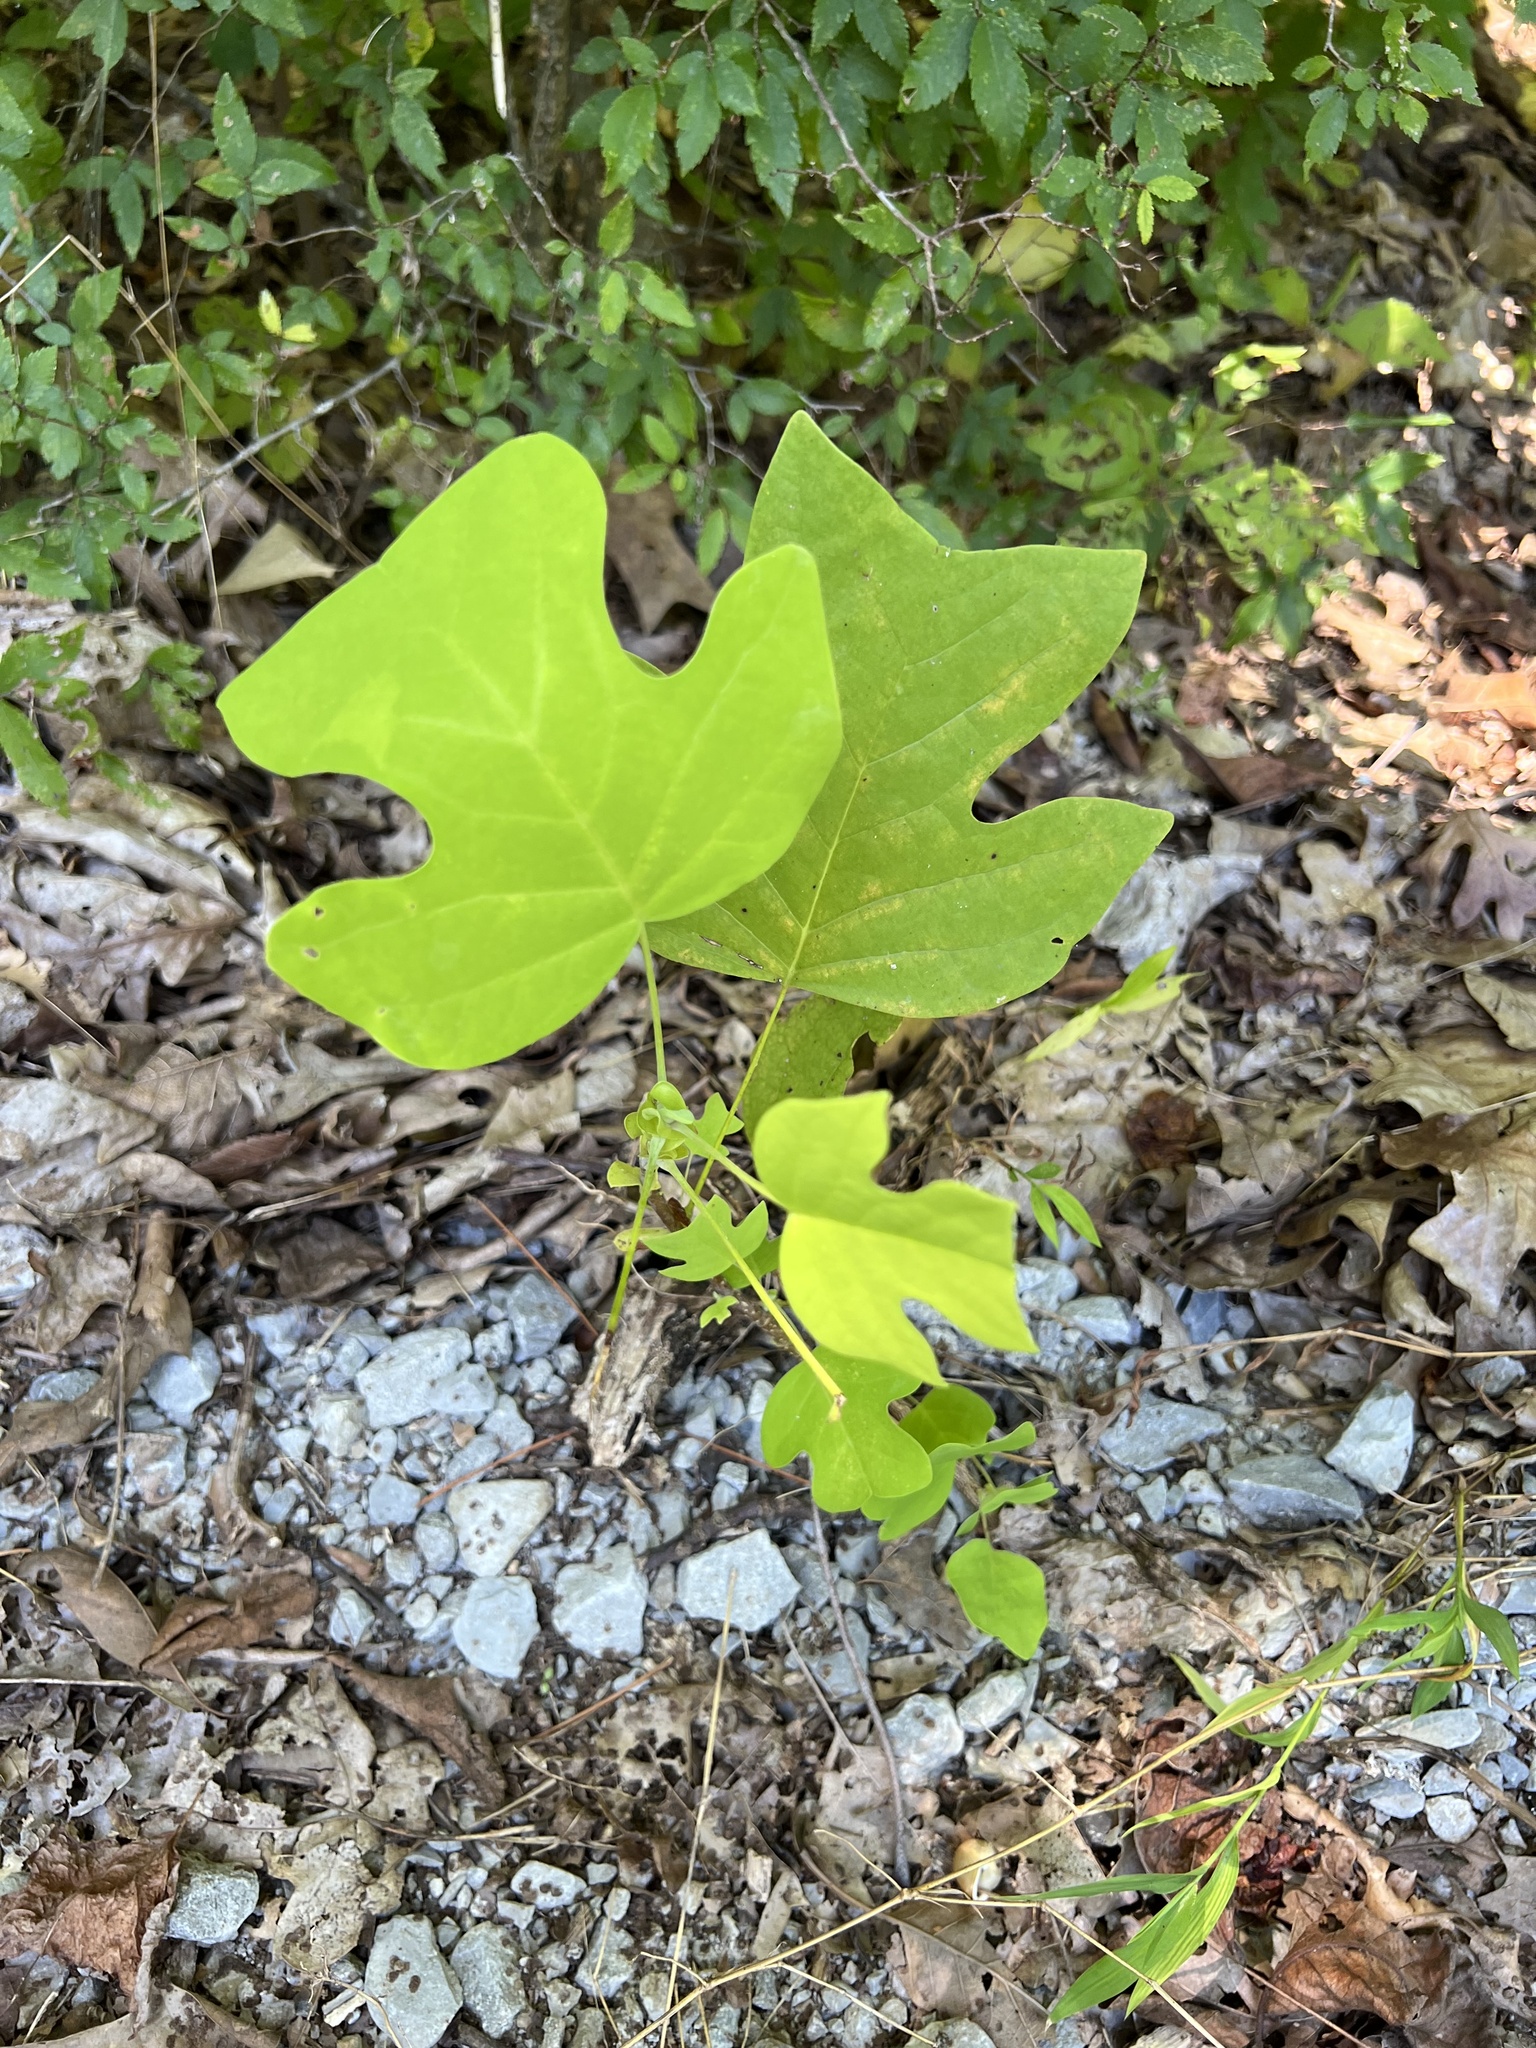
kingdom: Plantae
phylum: Tracheophyta
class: Magnoliopsida
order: Magnoliales
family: Magnoliaceae
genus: Liriodendron
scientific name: Liriodendron tulipifera
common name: Tulip tree
